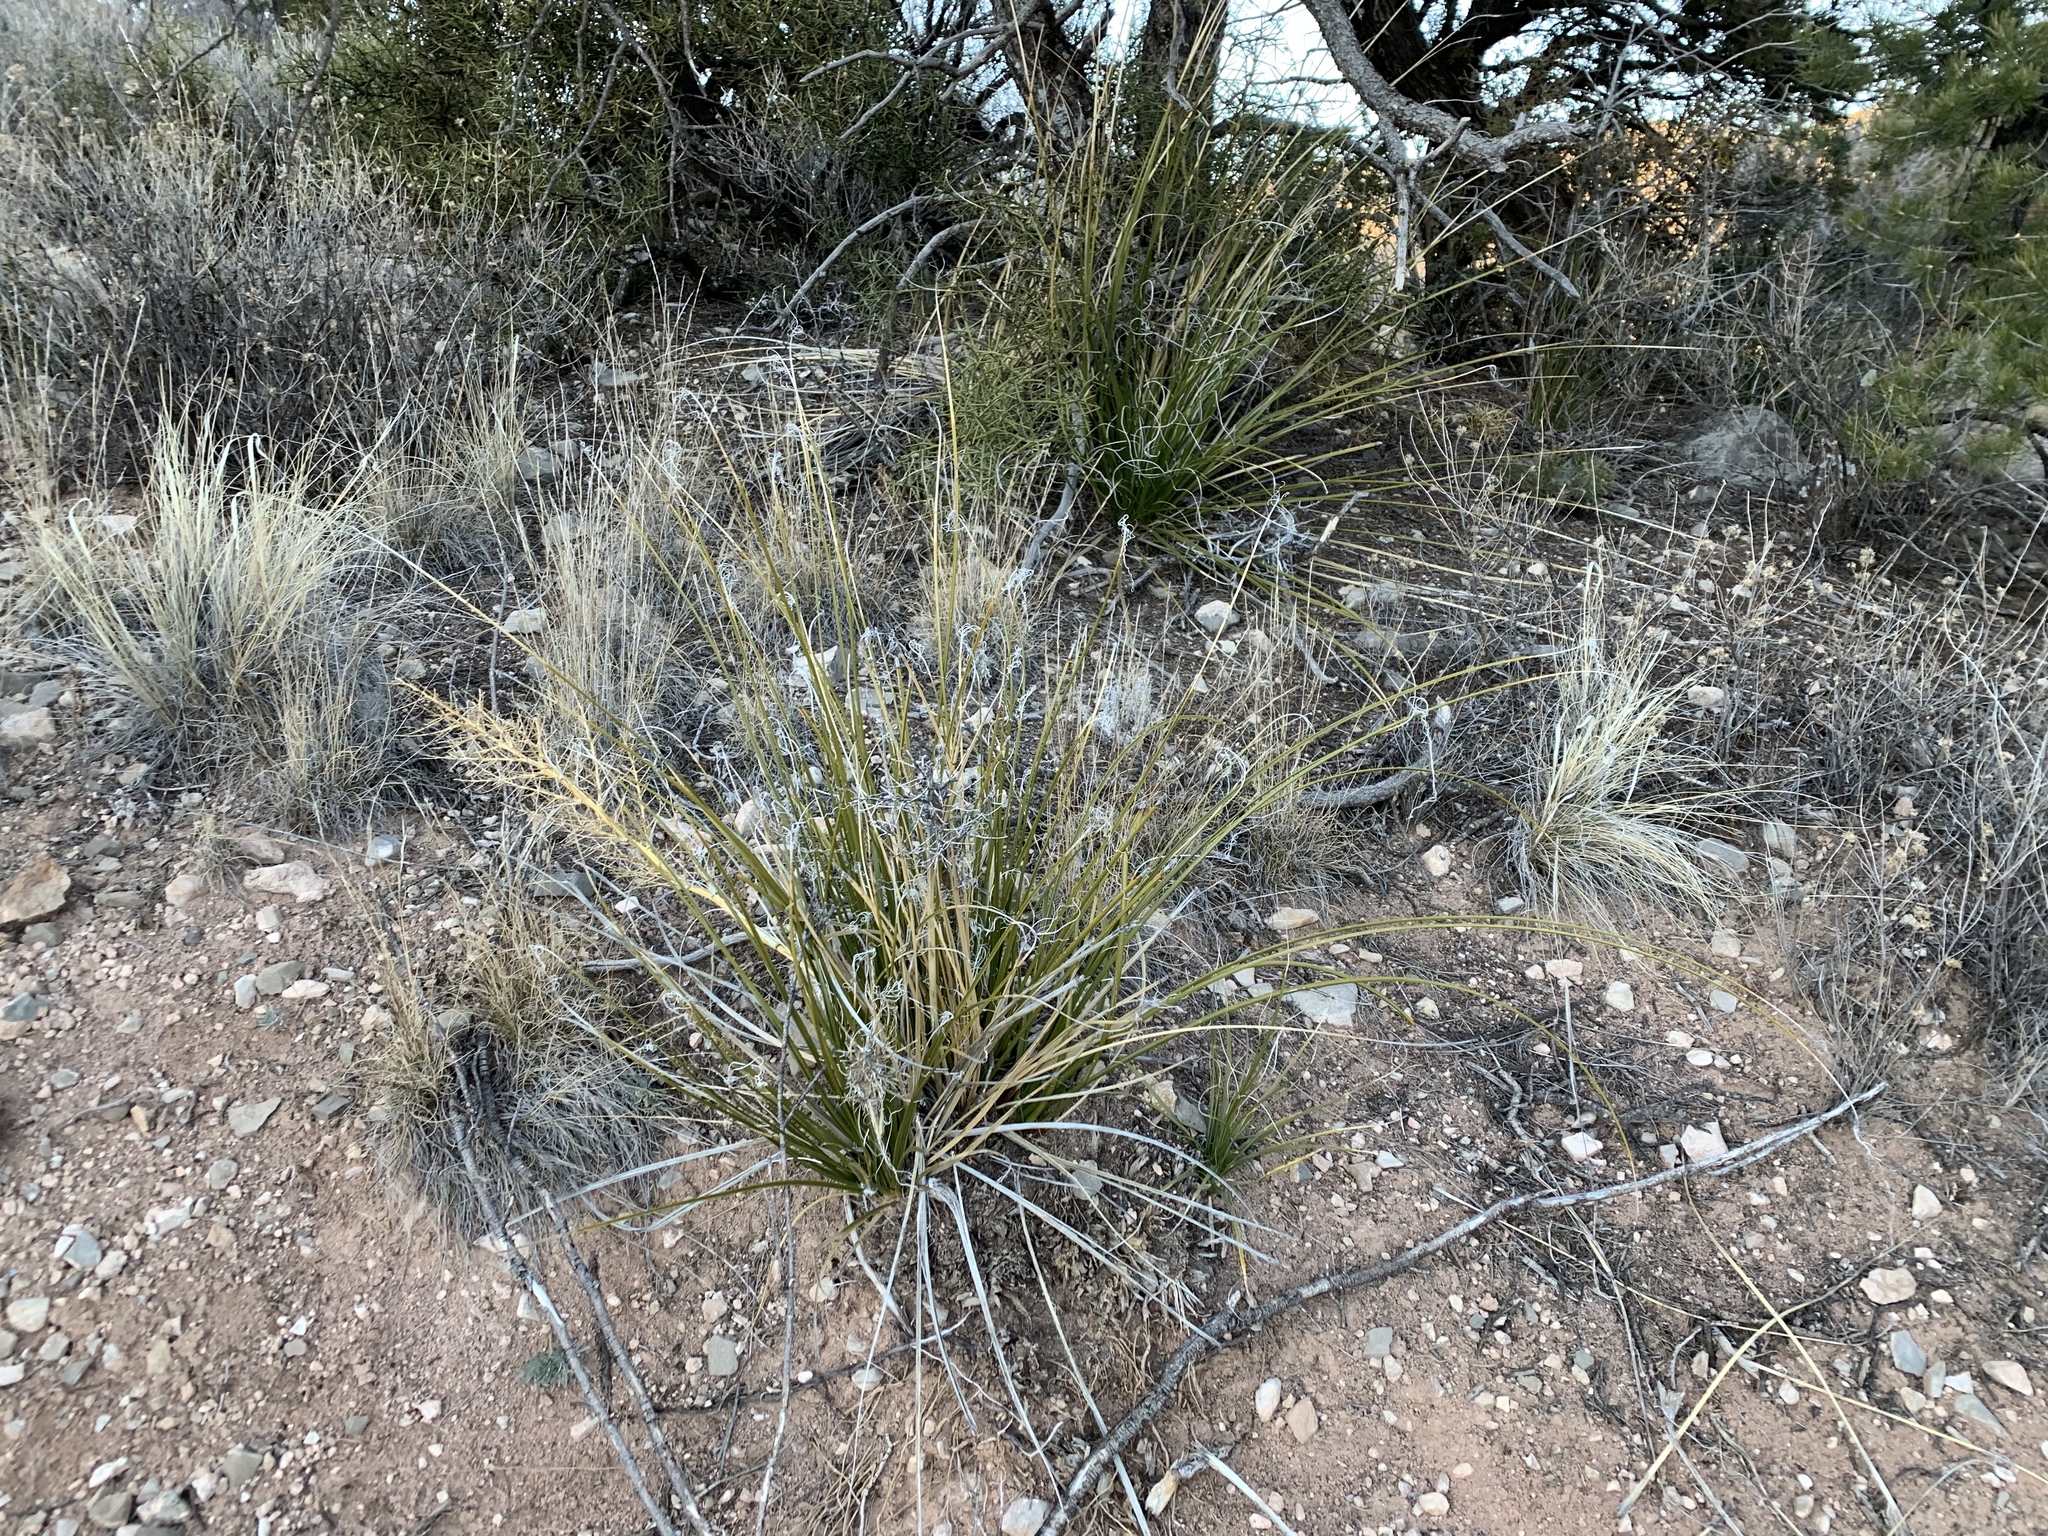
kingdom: Plantae
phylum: Tracheophyta
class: Liliopsida
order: Asparagales
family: Asparagaceae
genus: Nolina
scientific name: Nolina microcarpa
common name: Bear-grass
